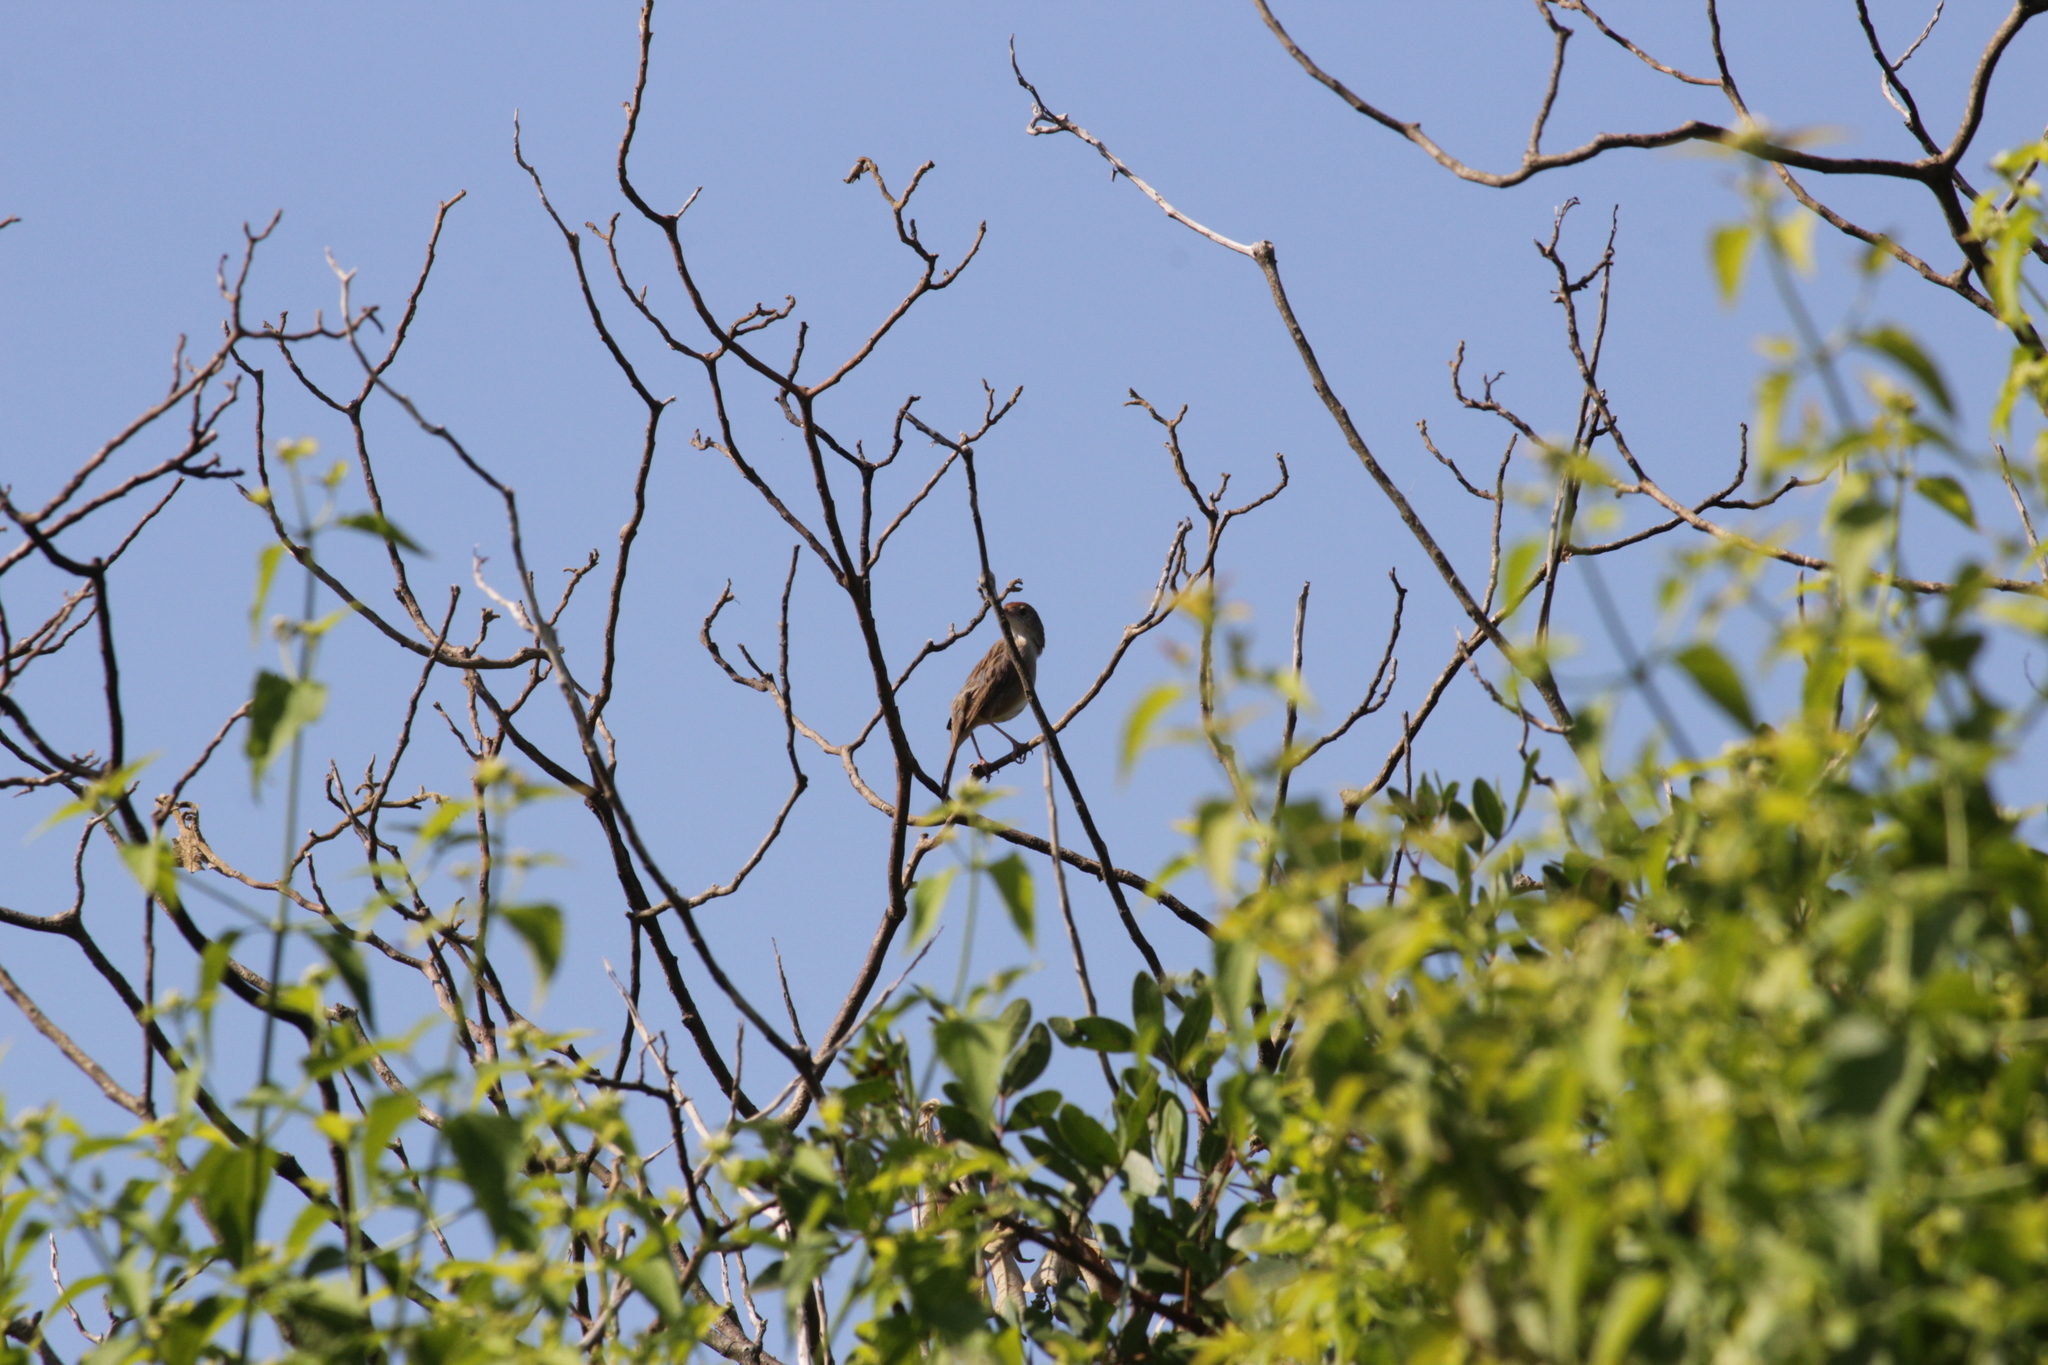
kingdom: Animalia
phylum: Chordata
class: Aves
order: Passeriformes
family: Cisticolidae
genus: Cisticola
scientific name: Cisticola chiniana
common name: Rattling cisticola
